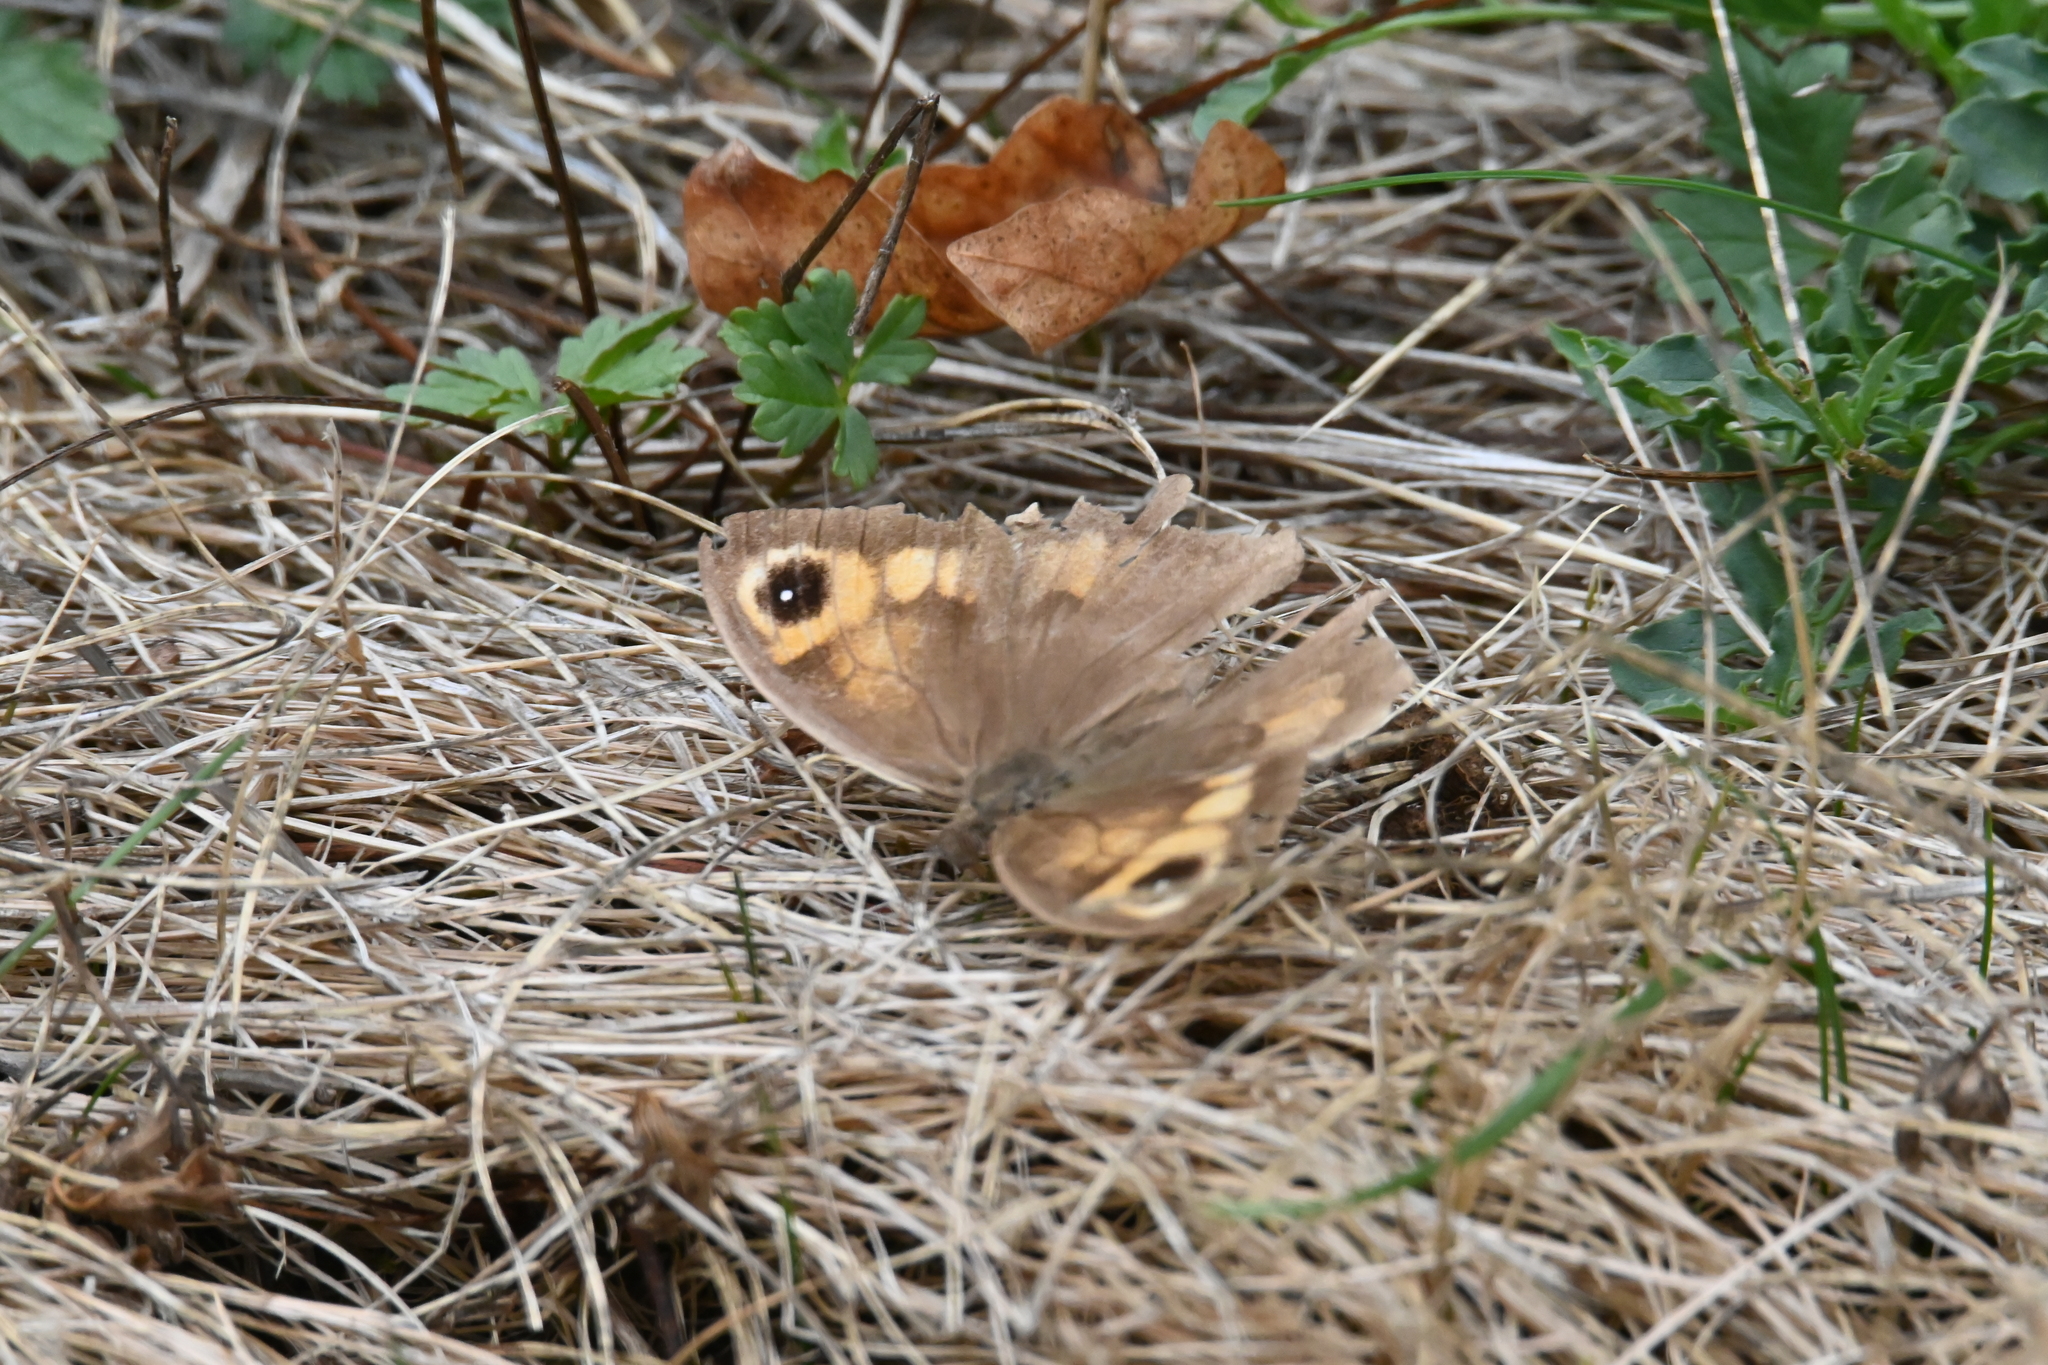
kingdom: Animalia
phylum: Arthropoda
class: Insecta
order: Lepidoptera
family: Nymphalidae
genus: Maniola
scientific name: Maniola jurtina
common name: Meadow brown
